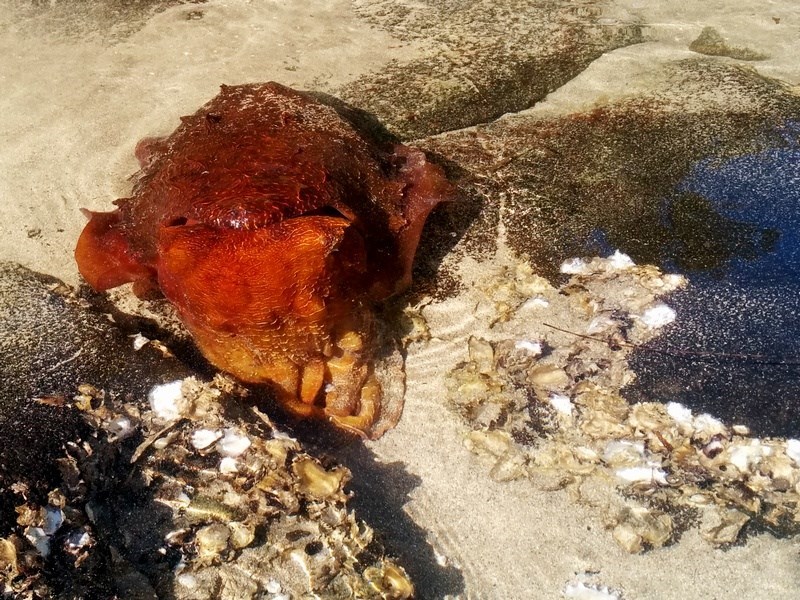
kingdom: Animalia
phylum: Mollusca
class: Cephalopoda
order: Sepiida
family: Sepiidae
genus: Ascarosepion
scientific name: Ascarosepion apama
